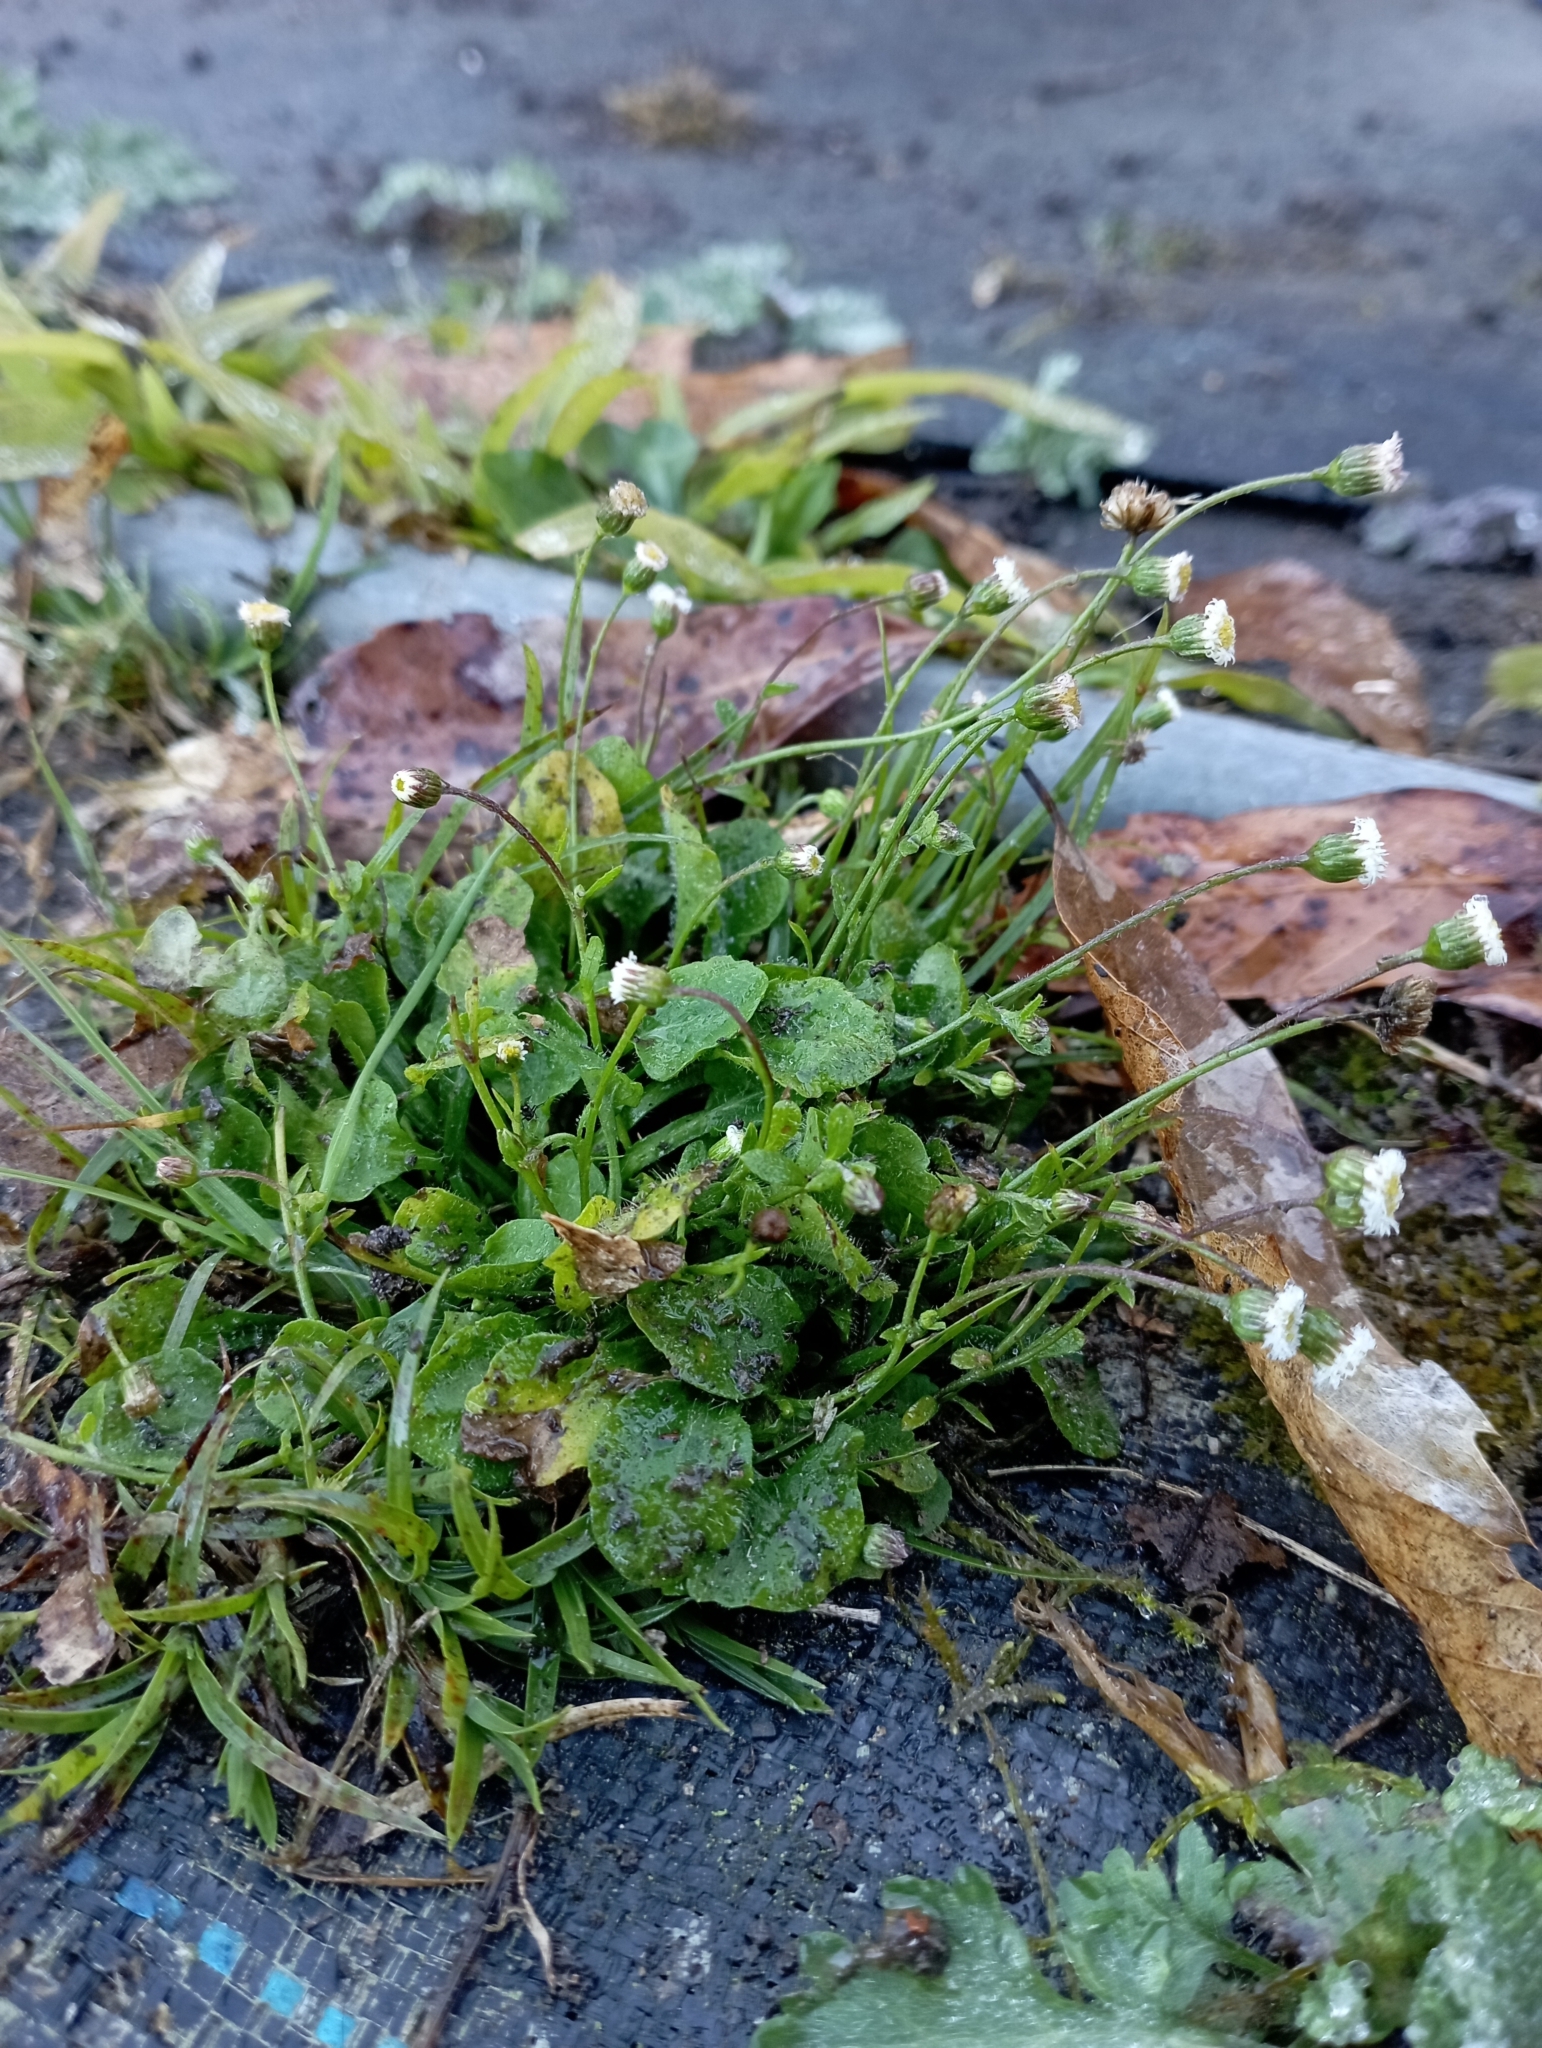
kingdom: Plantae
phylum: Tracheophyta
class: Magnoliopsida
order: Asterales
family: Asteraceae
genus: Erigeron
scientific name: Erigeron bellioides
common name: Bellorita
